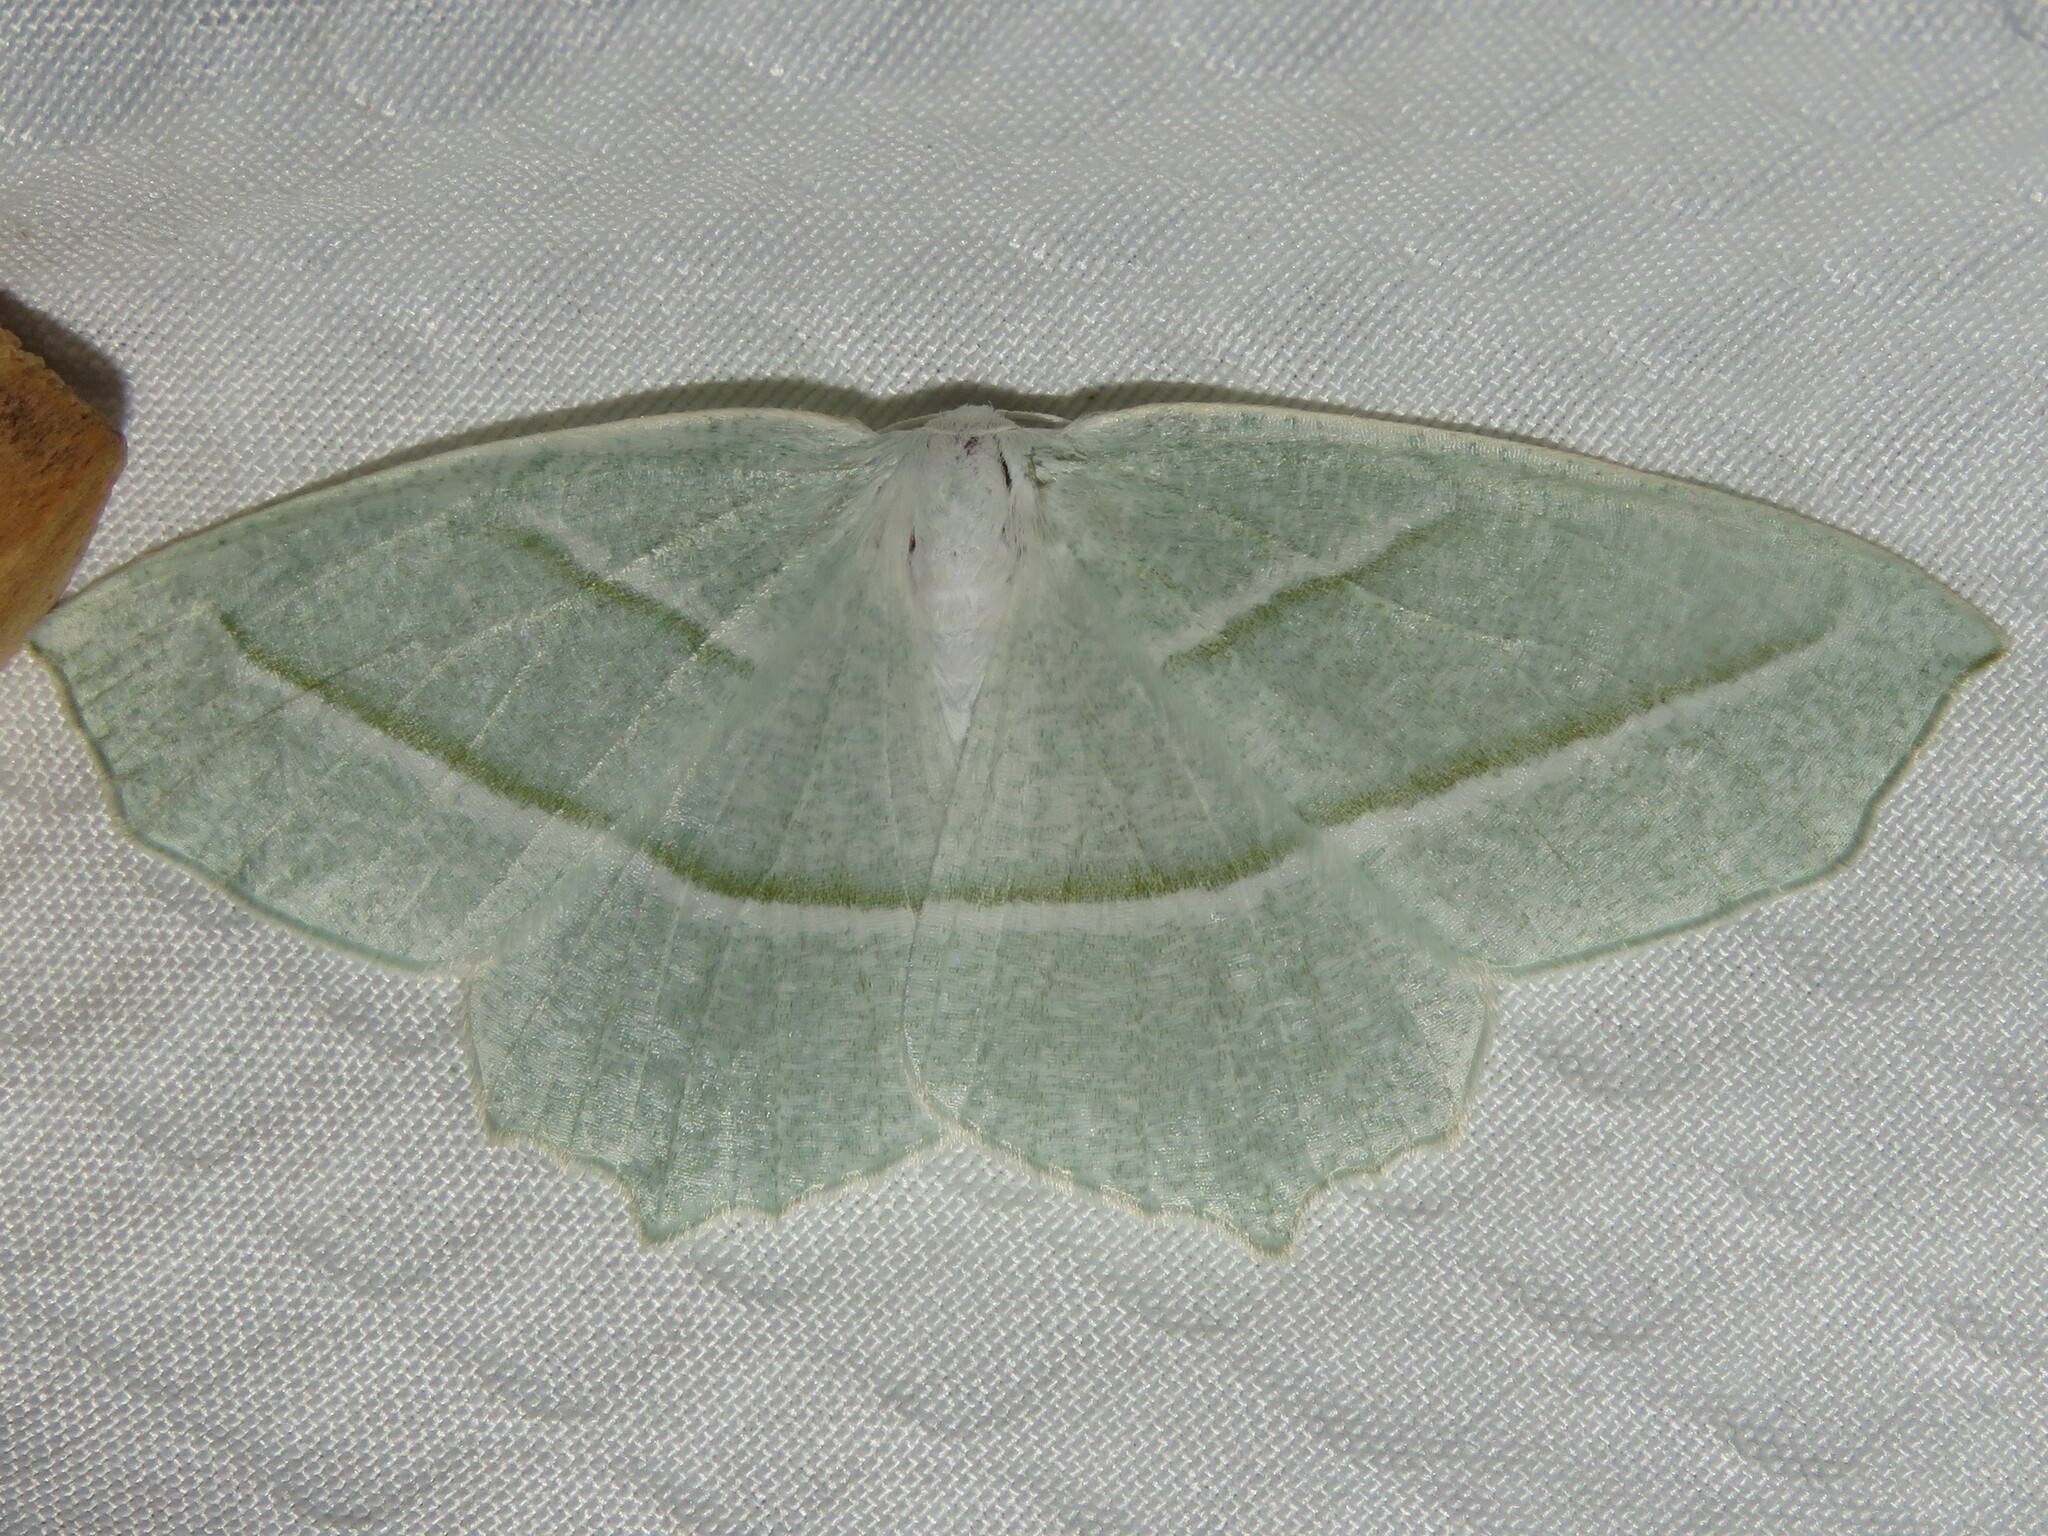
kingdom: Animalia
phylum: Arthropoda
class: Insecta
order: Lepidoptera
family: Geometridae
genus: Campaea
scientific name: Campaea perlata
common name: Fringed looper
